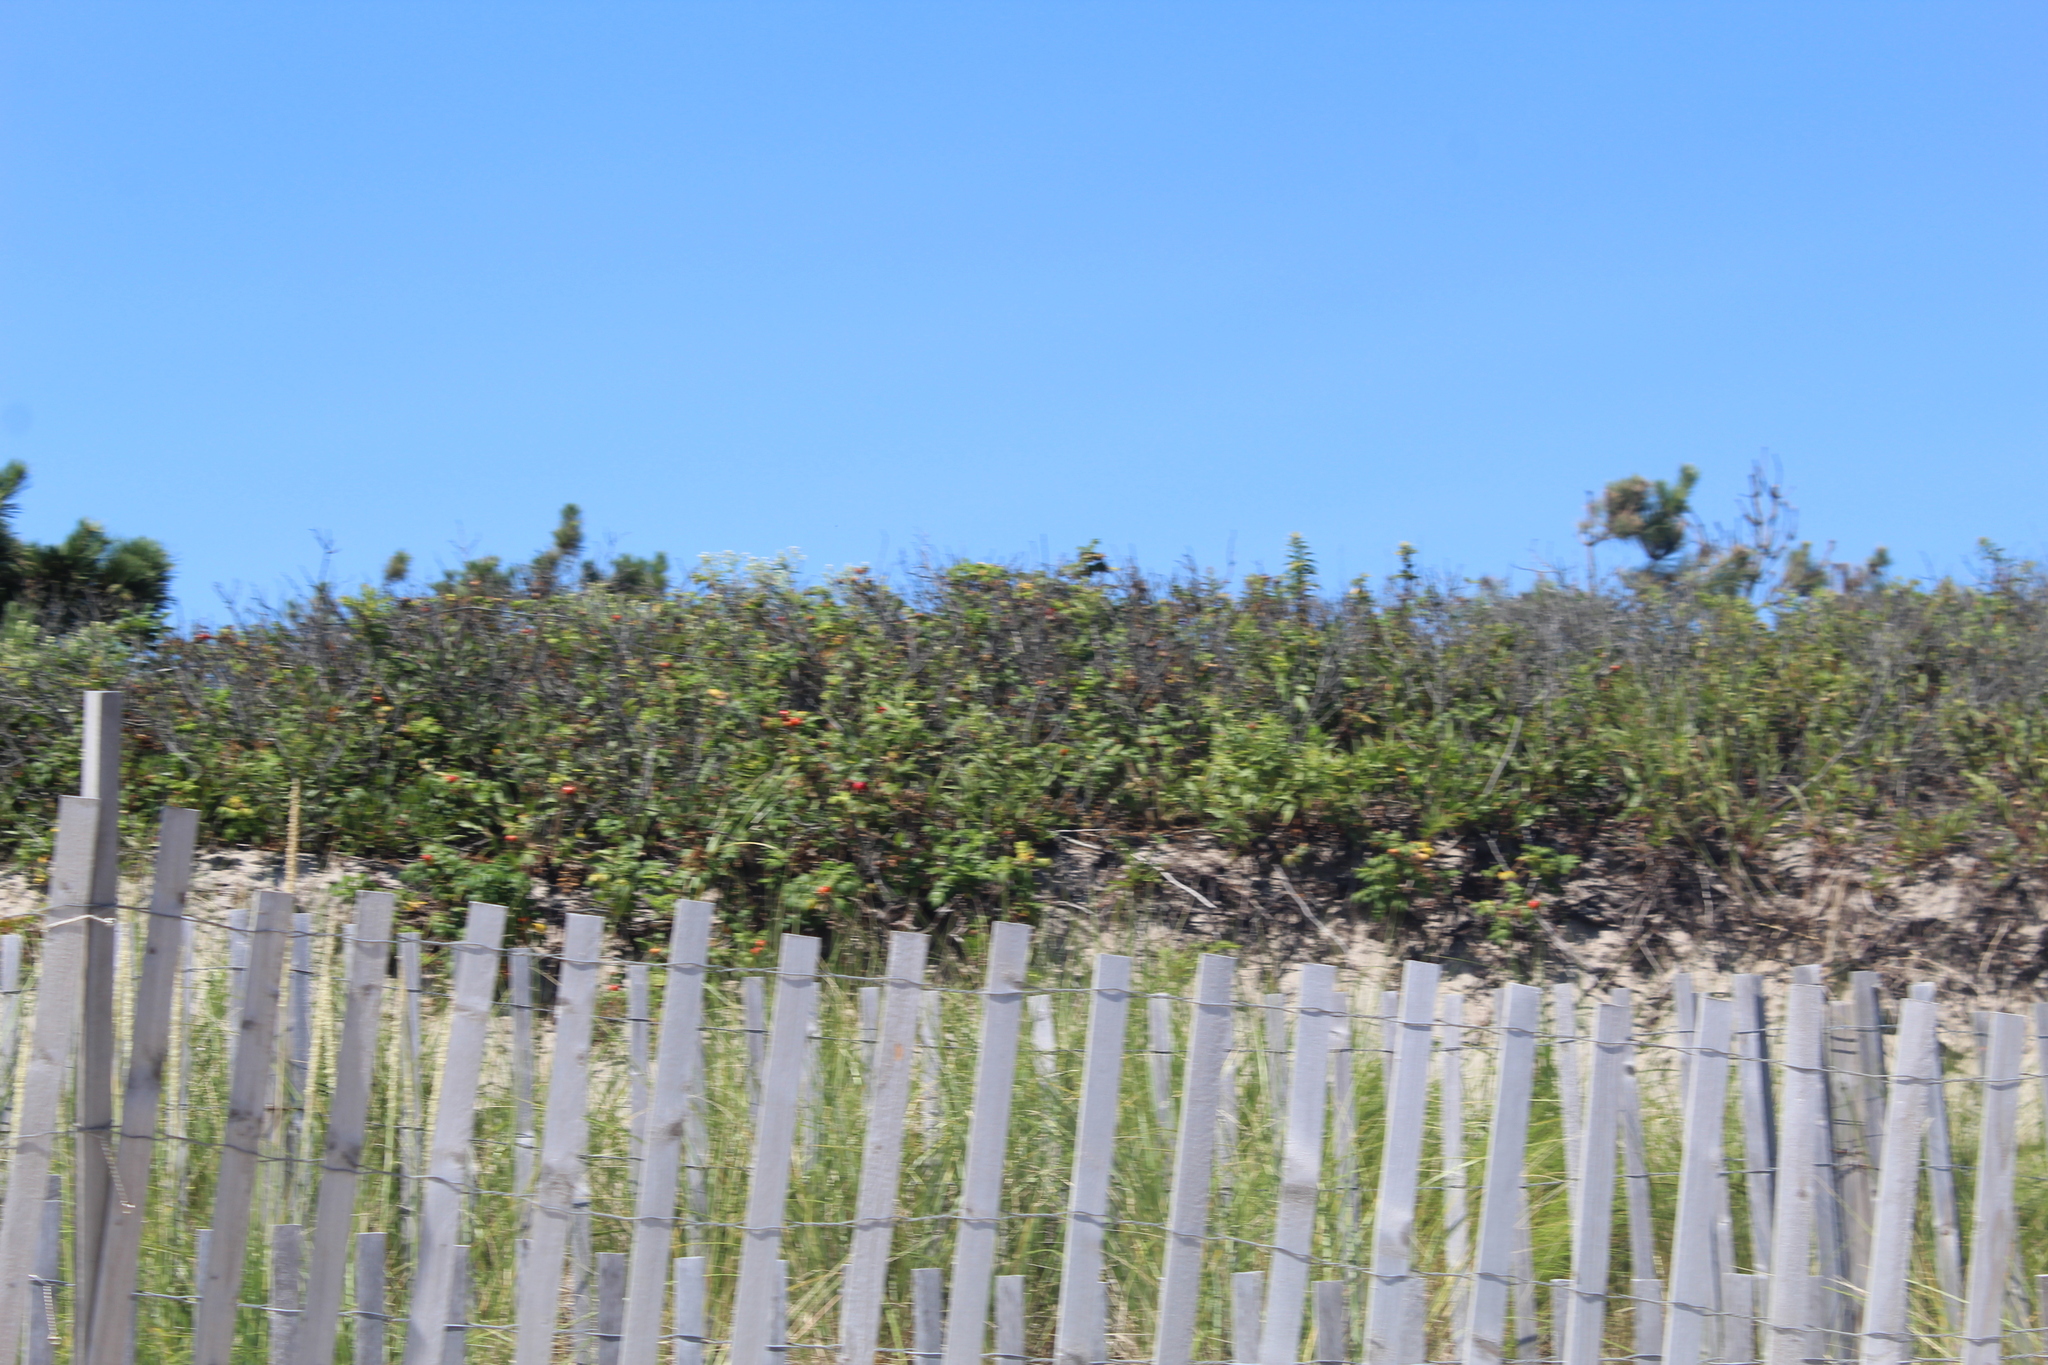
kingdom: Plantae
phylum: Tracheophyta
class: Magnoliopsida
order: Rosales
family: Rosaceae
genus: Rosa
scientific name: Rosa rugosa
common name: Japanese rose
